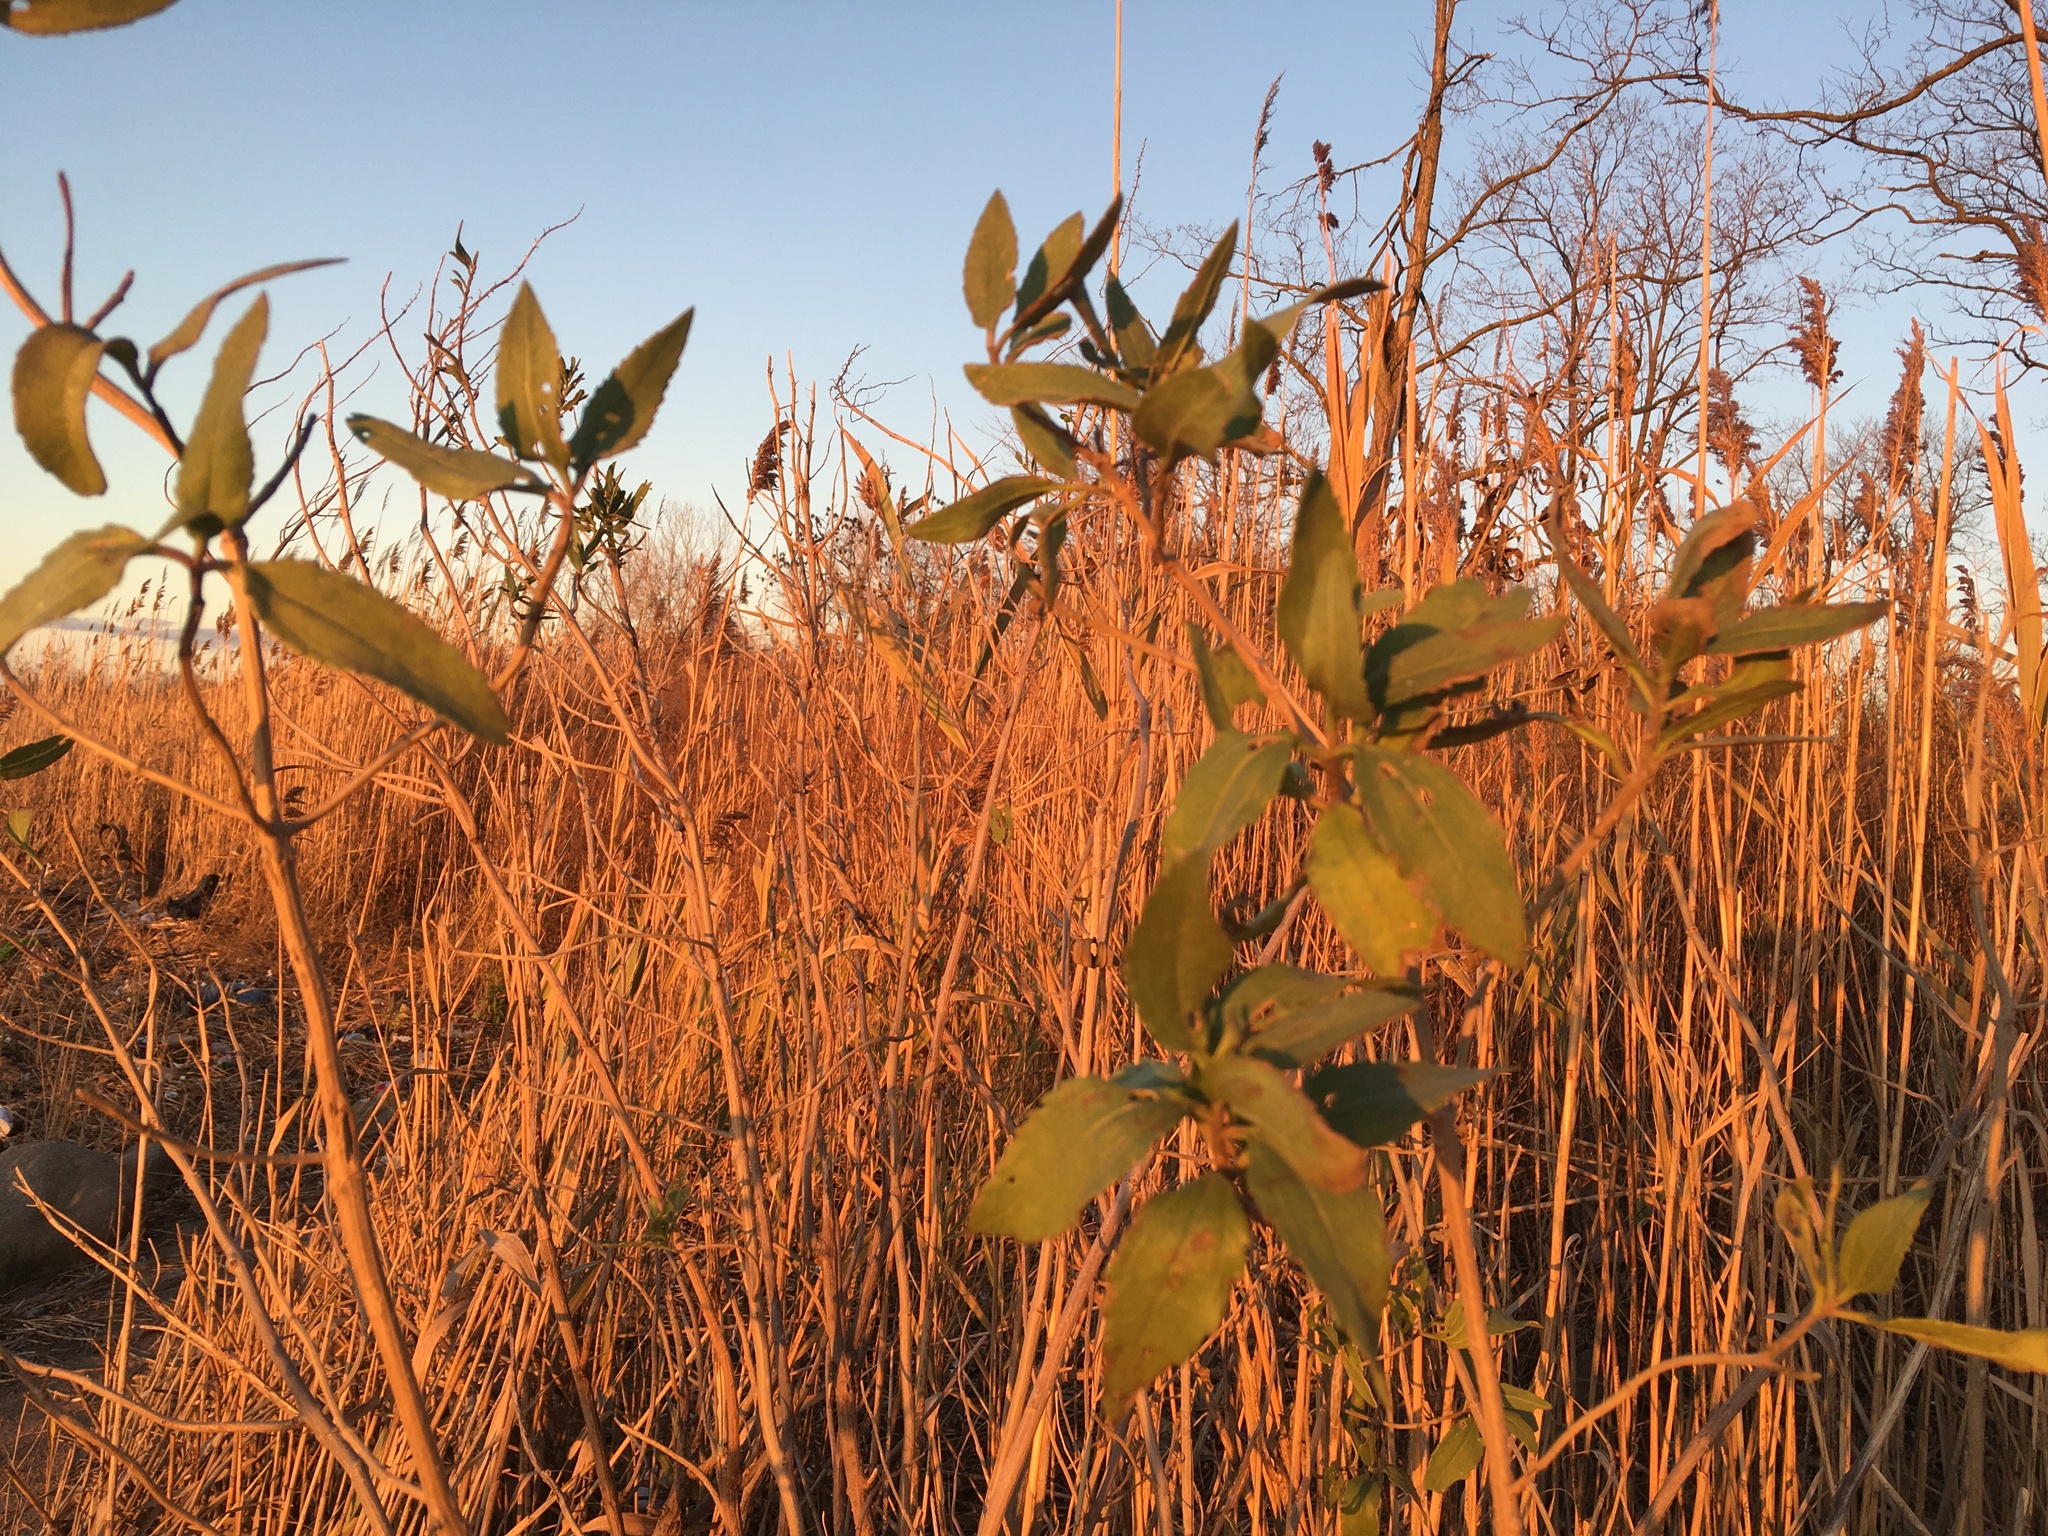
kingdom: Plantae
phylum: Tracheophyta
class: Magnoliopsida
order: Asterales
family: Asteraceae
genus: Iva
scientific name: Iva frutescens
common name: Big-leaved marsh-elder
